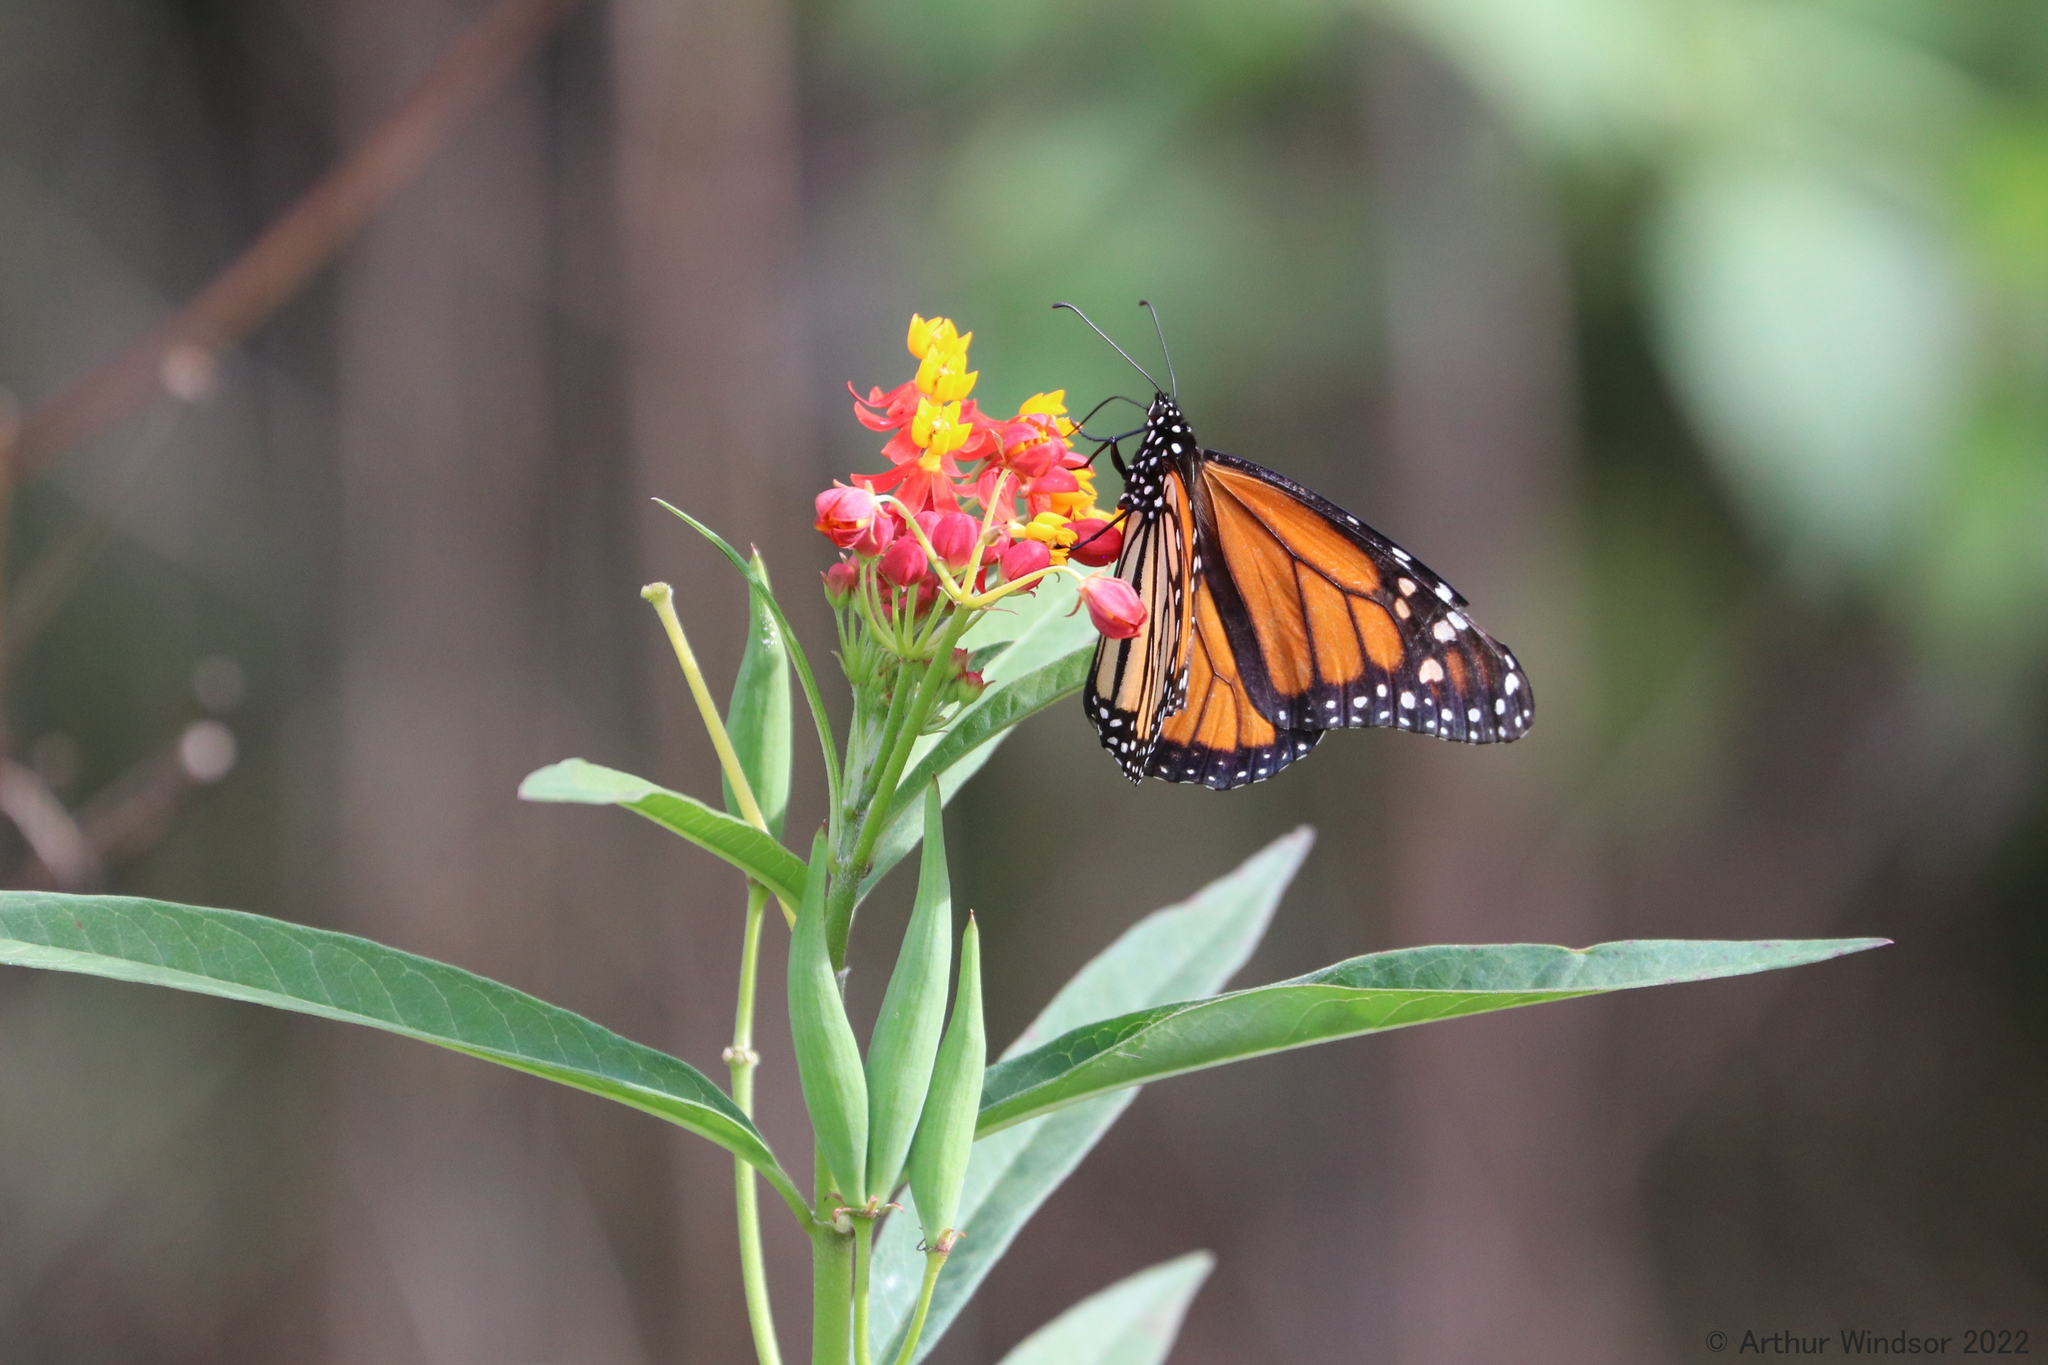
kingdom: Animalia
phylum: Arthropoda
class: Insecta
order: Lepidoptera
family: Nymphalidae
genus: Danaus
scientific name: Danaus plexippus
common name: Monarch
